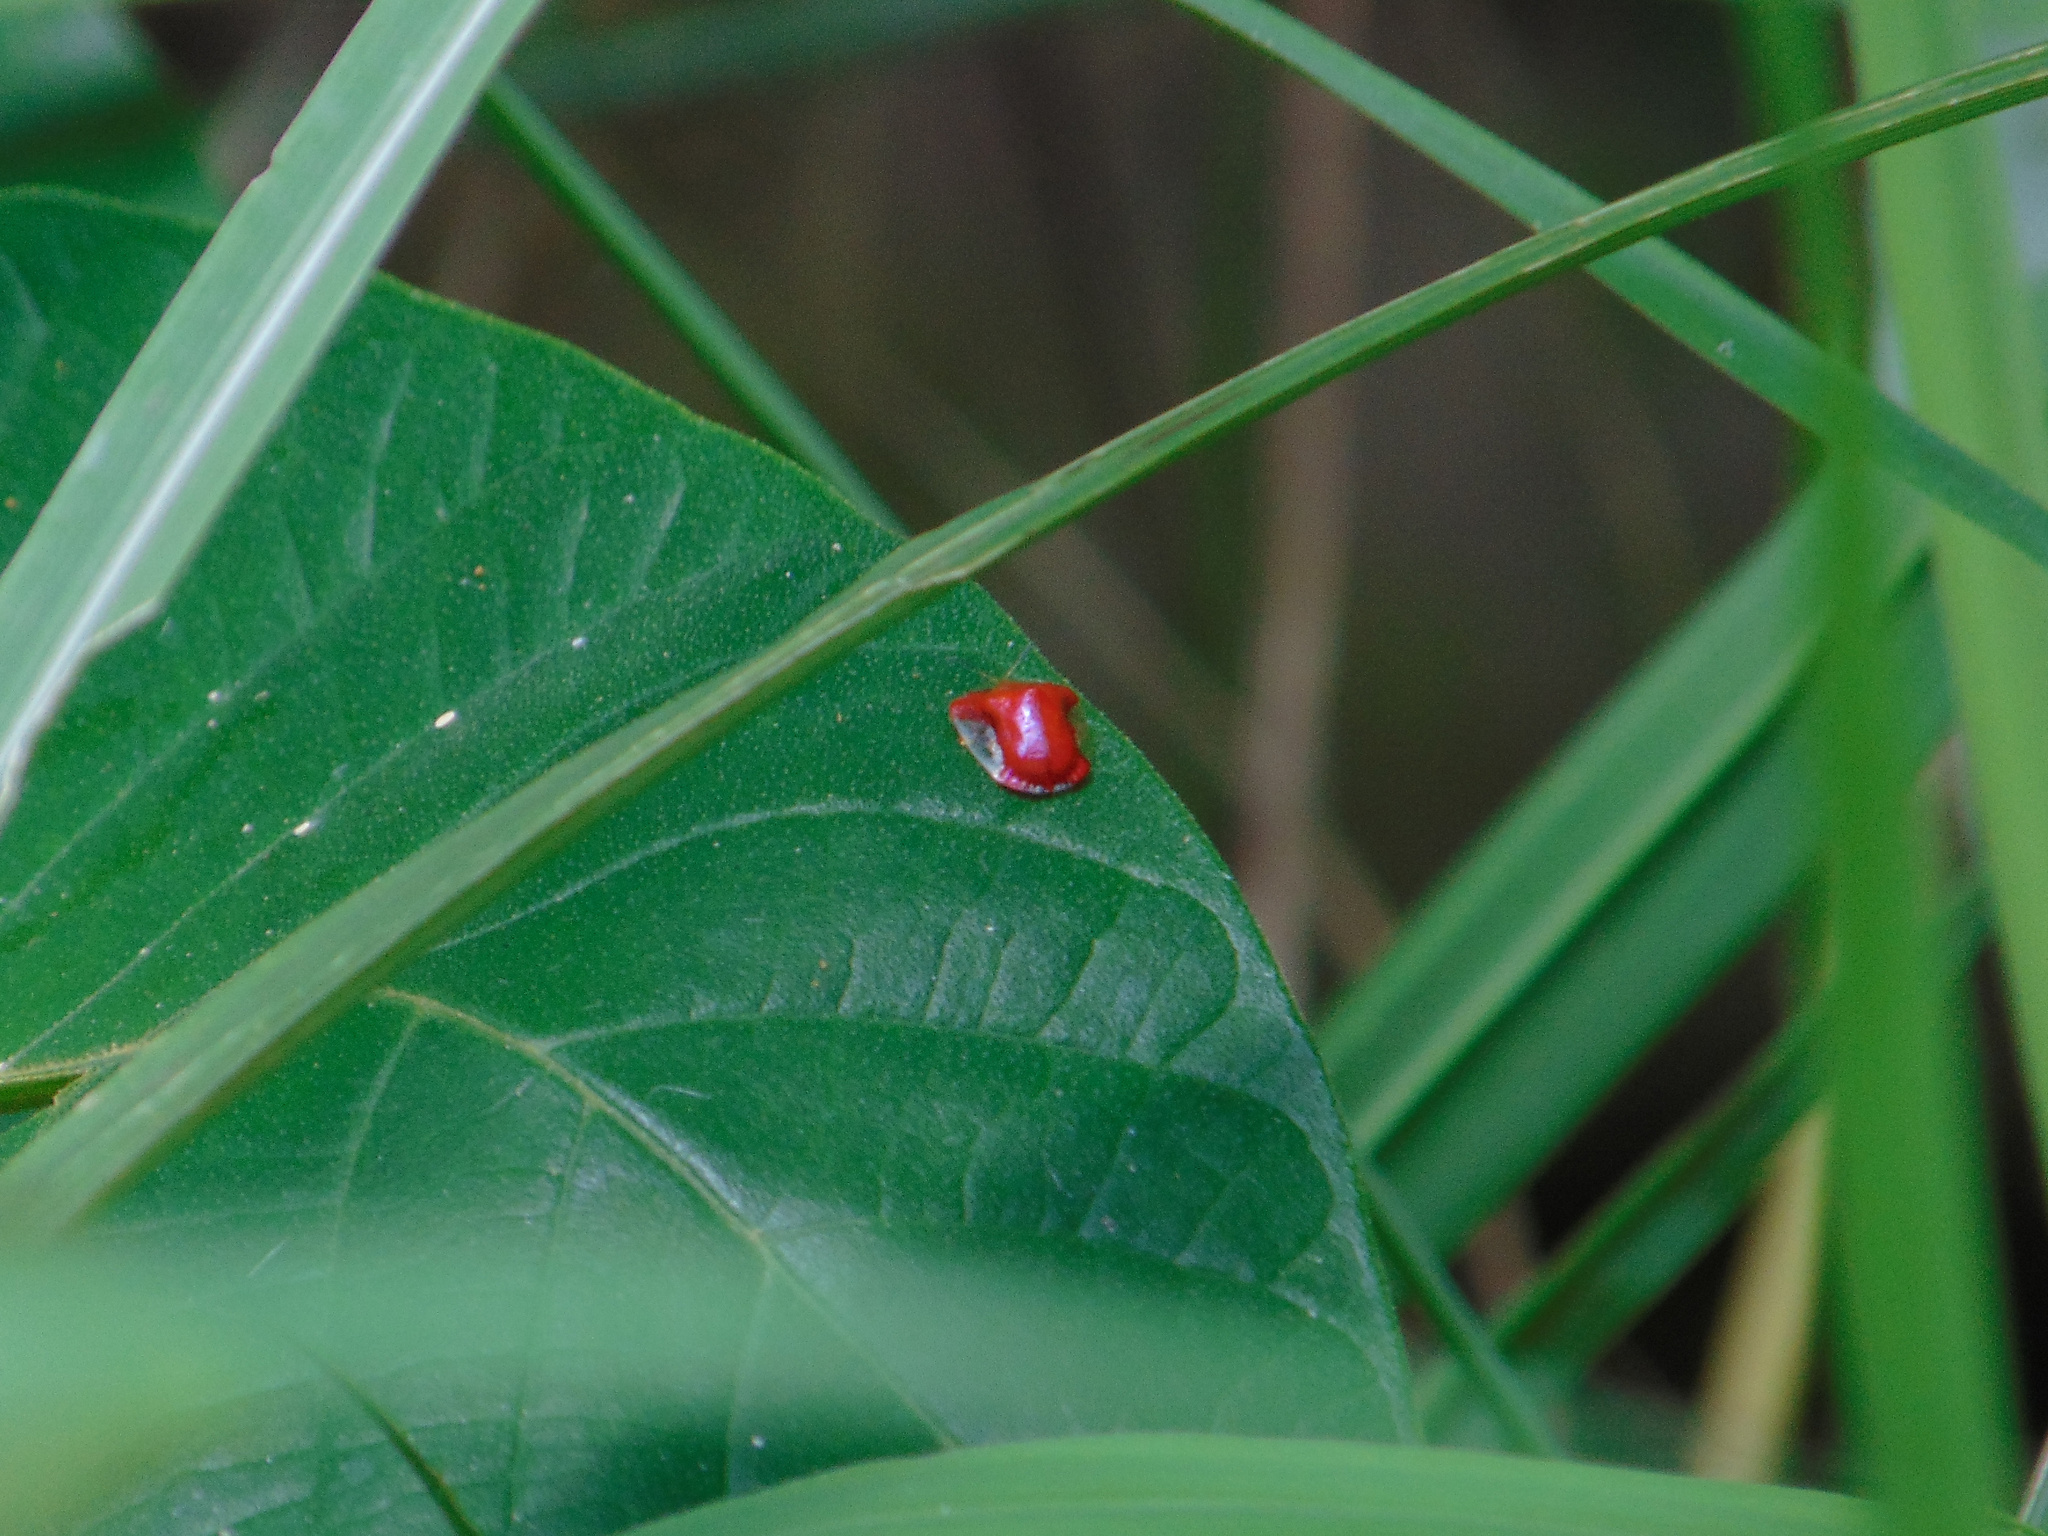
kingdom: Animalia
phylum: Arthropoda
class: Insecta
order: Coleoptera
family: Chrysomelidae
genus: Charidotella
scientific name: Charidotella rubicunda
